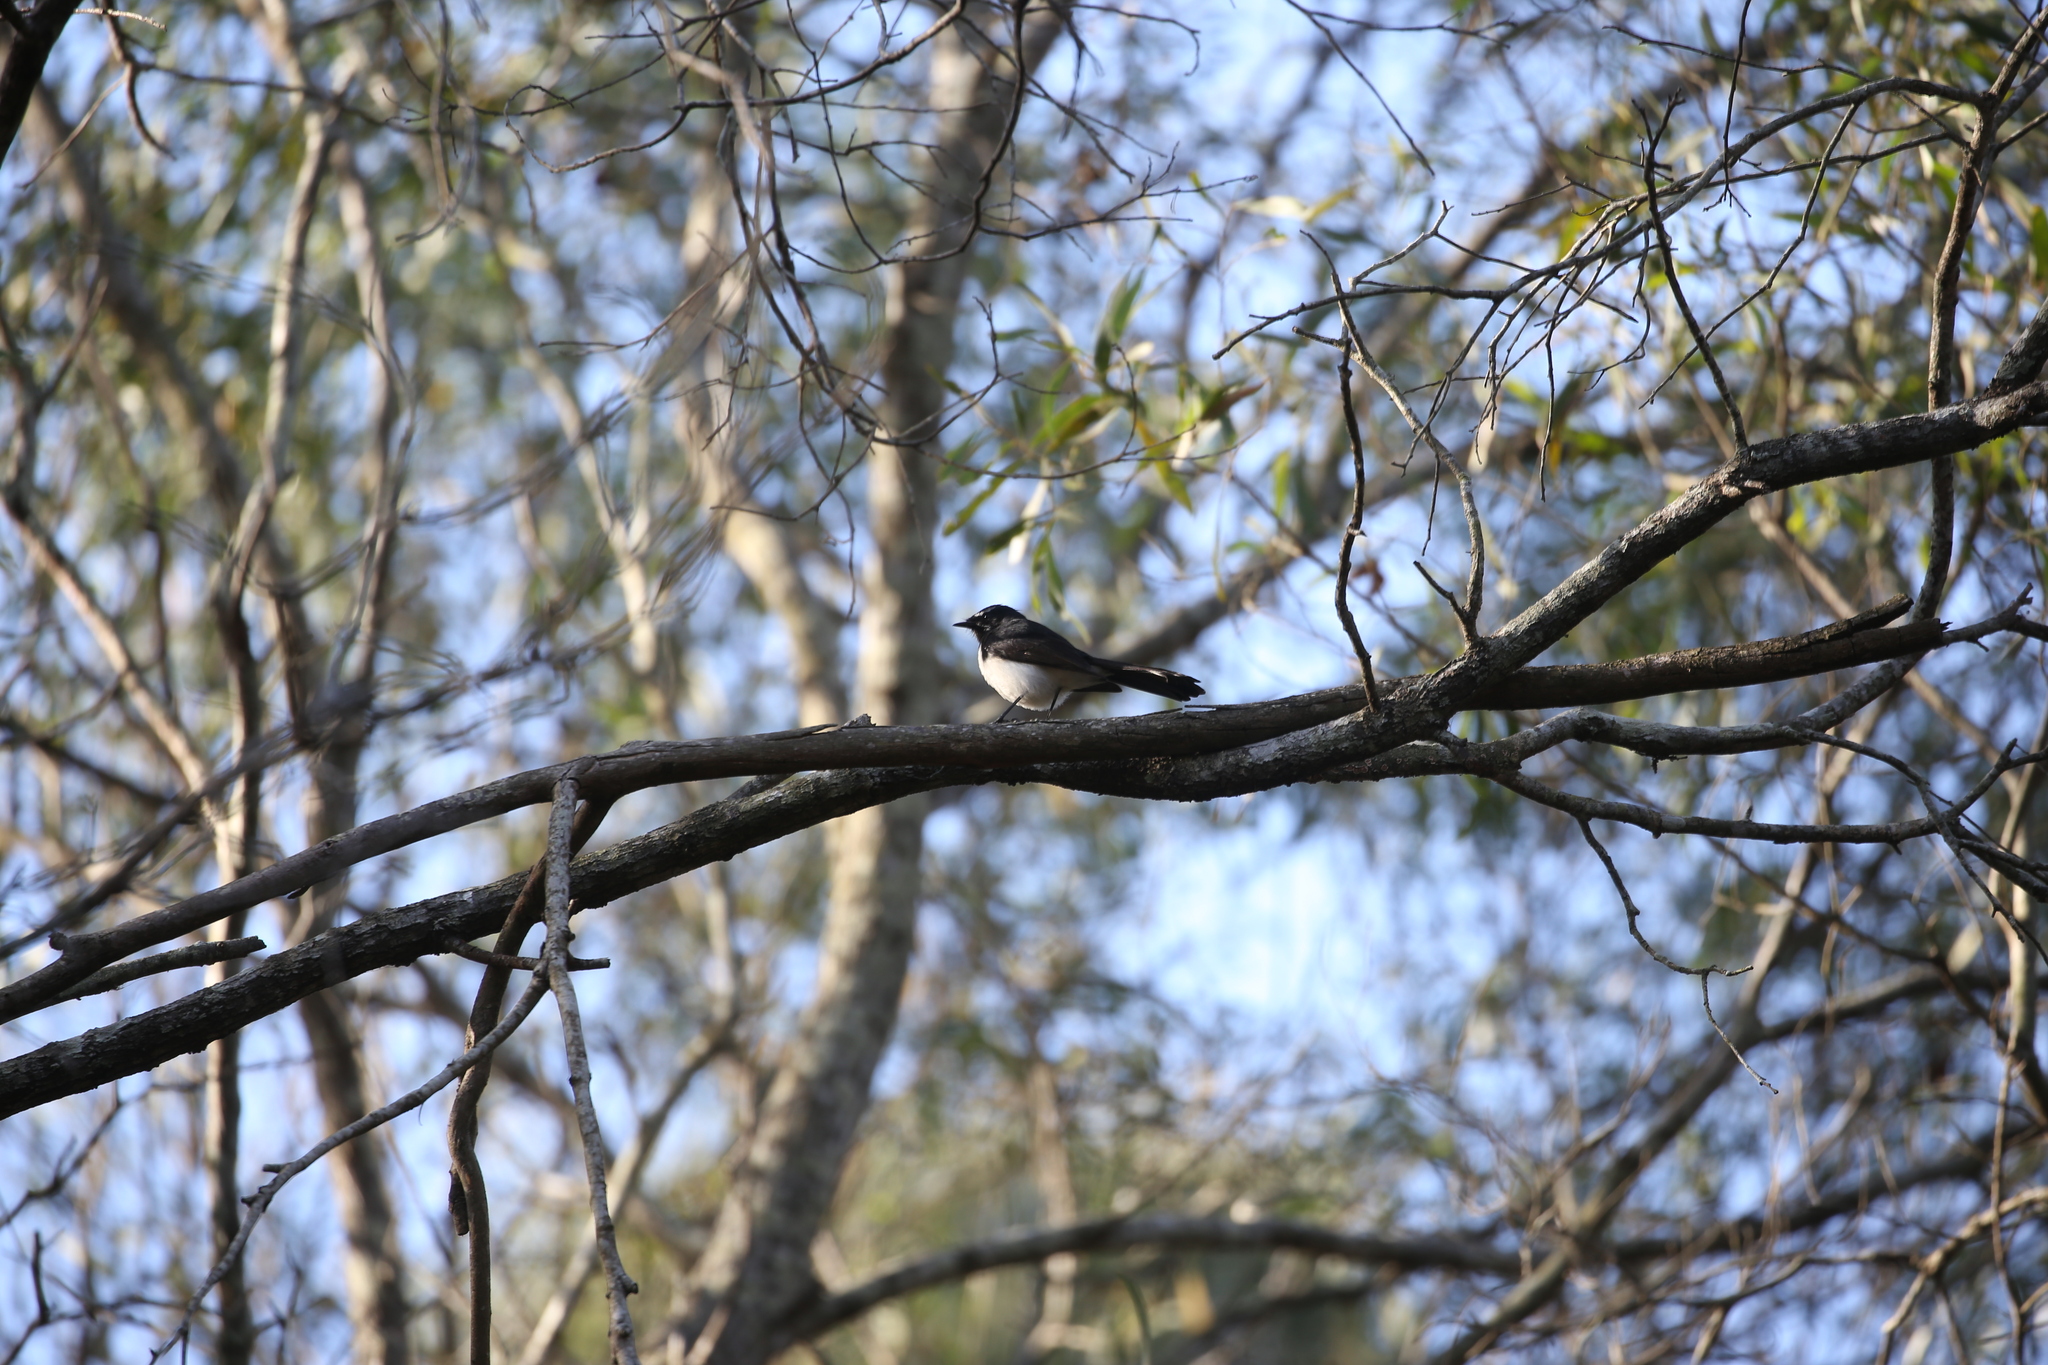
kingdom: Animalia
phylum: Chordata
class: Aves
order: Passeriformes
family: Rhipiduridae
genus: Rhipidura
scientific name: Rhipidura leucophrys
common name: Willie wagtail
